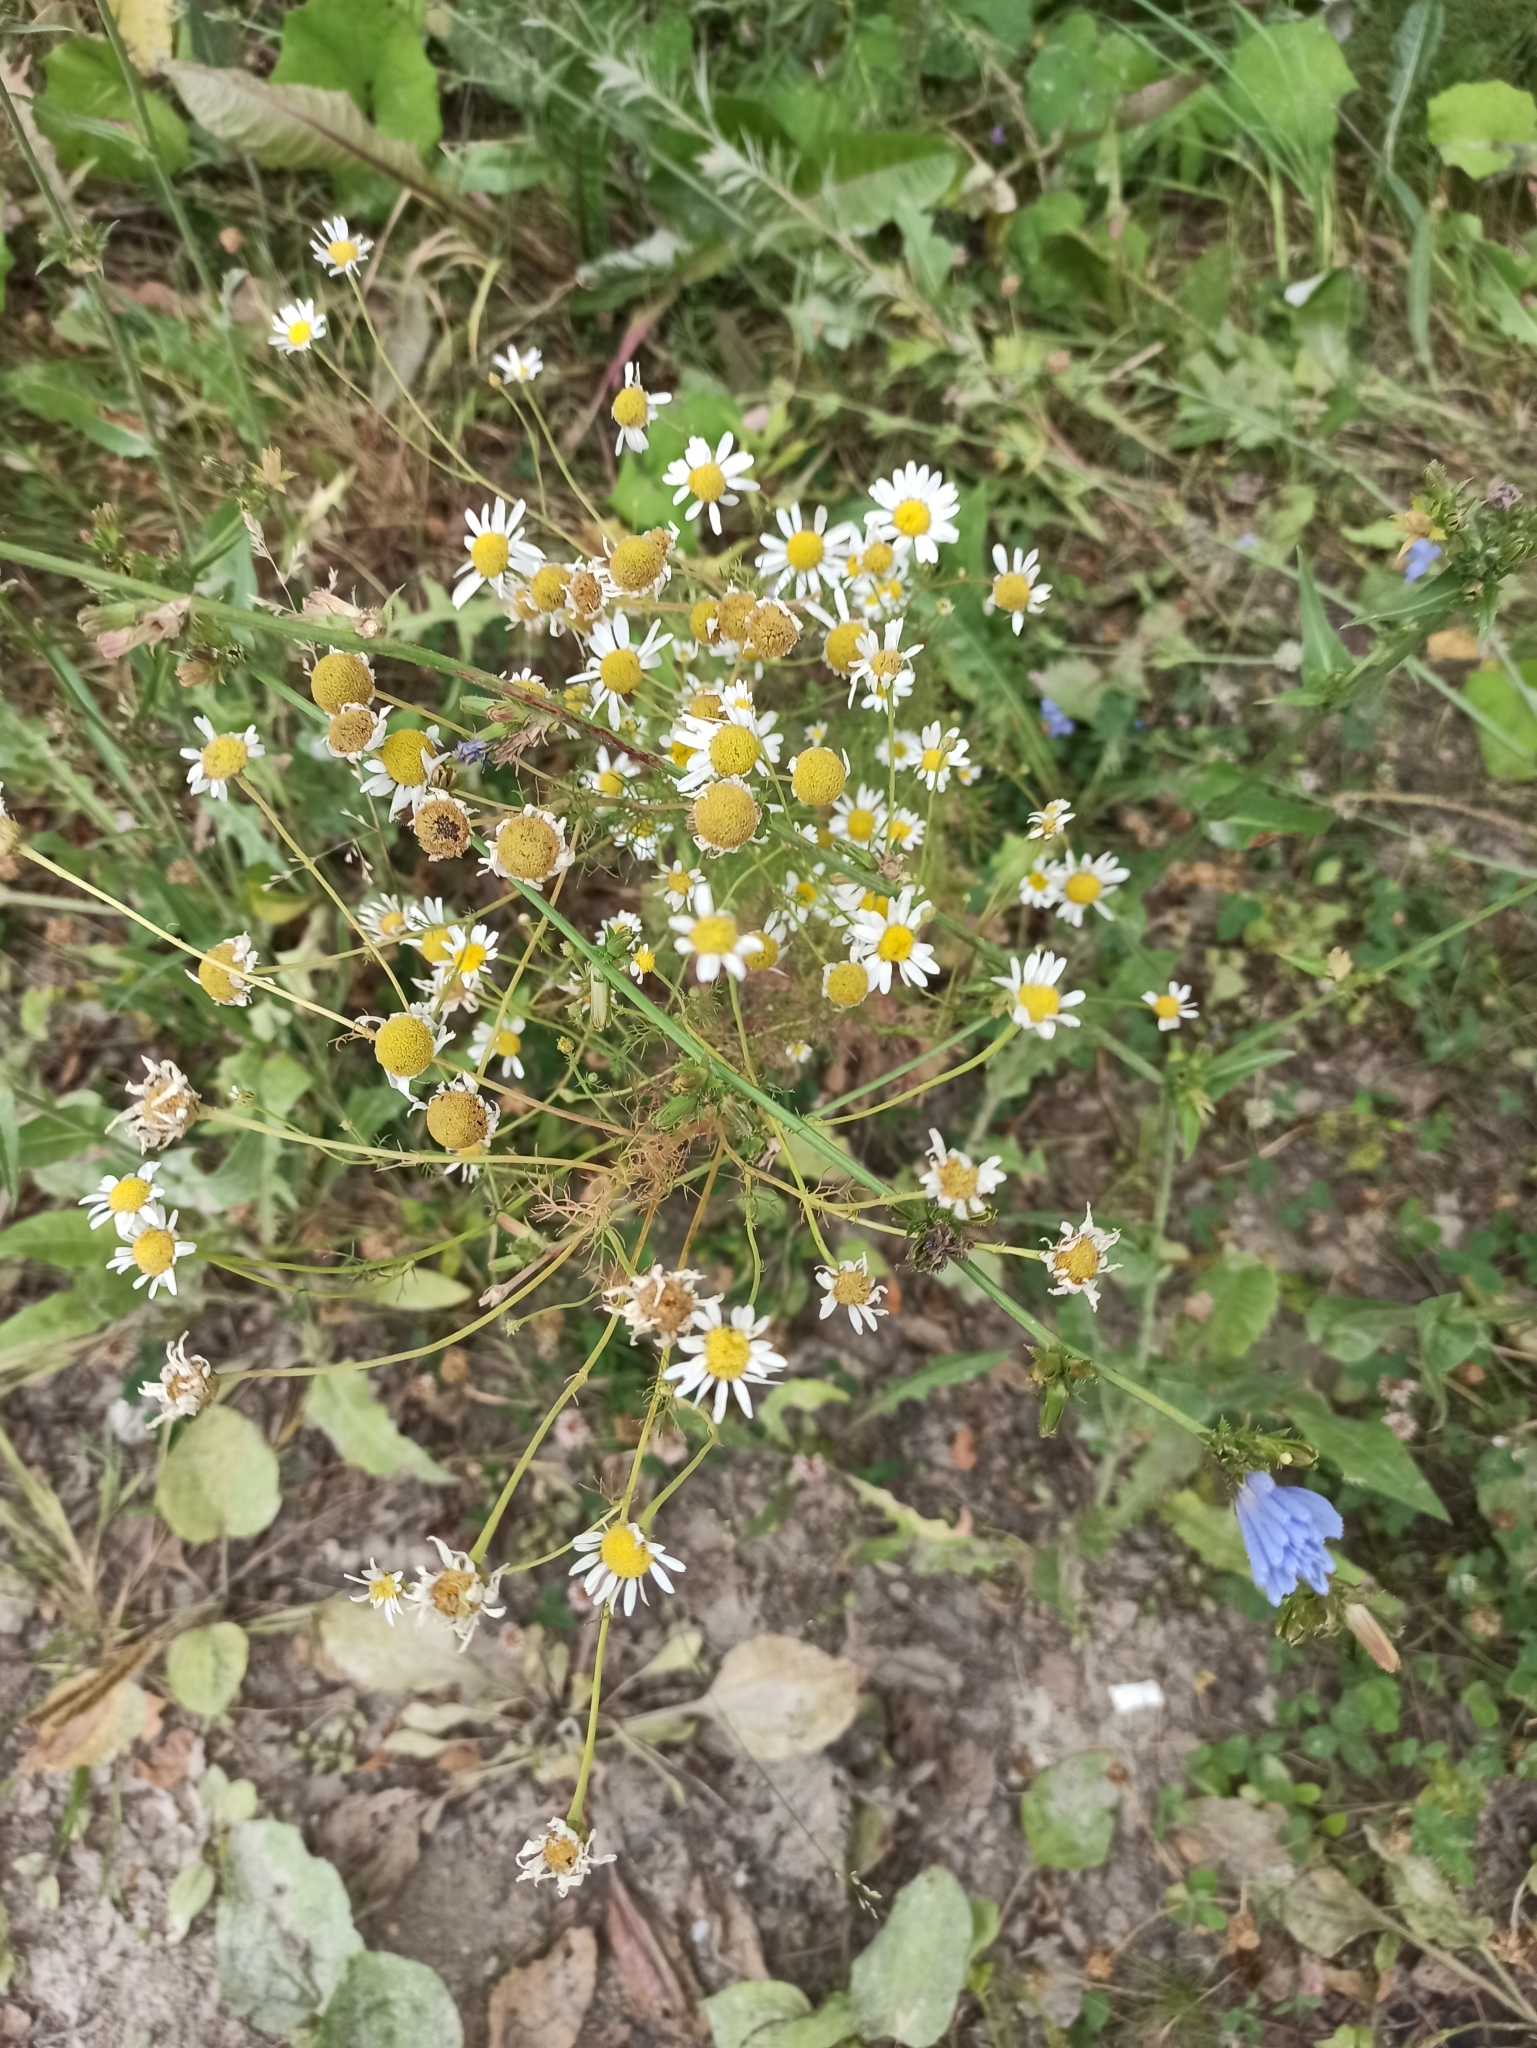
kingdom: Plantae
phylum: Tracheophyta
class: Magnoliopsida
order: Asterales
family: Asteraceae
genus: Tripleurospermum
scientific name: Tripleurospermum inodorum
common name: Scentless mayweed
